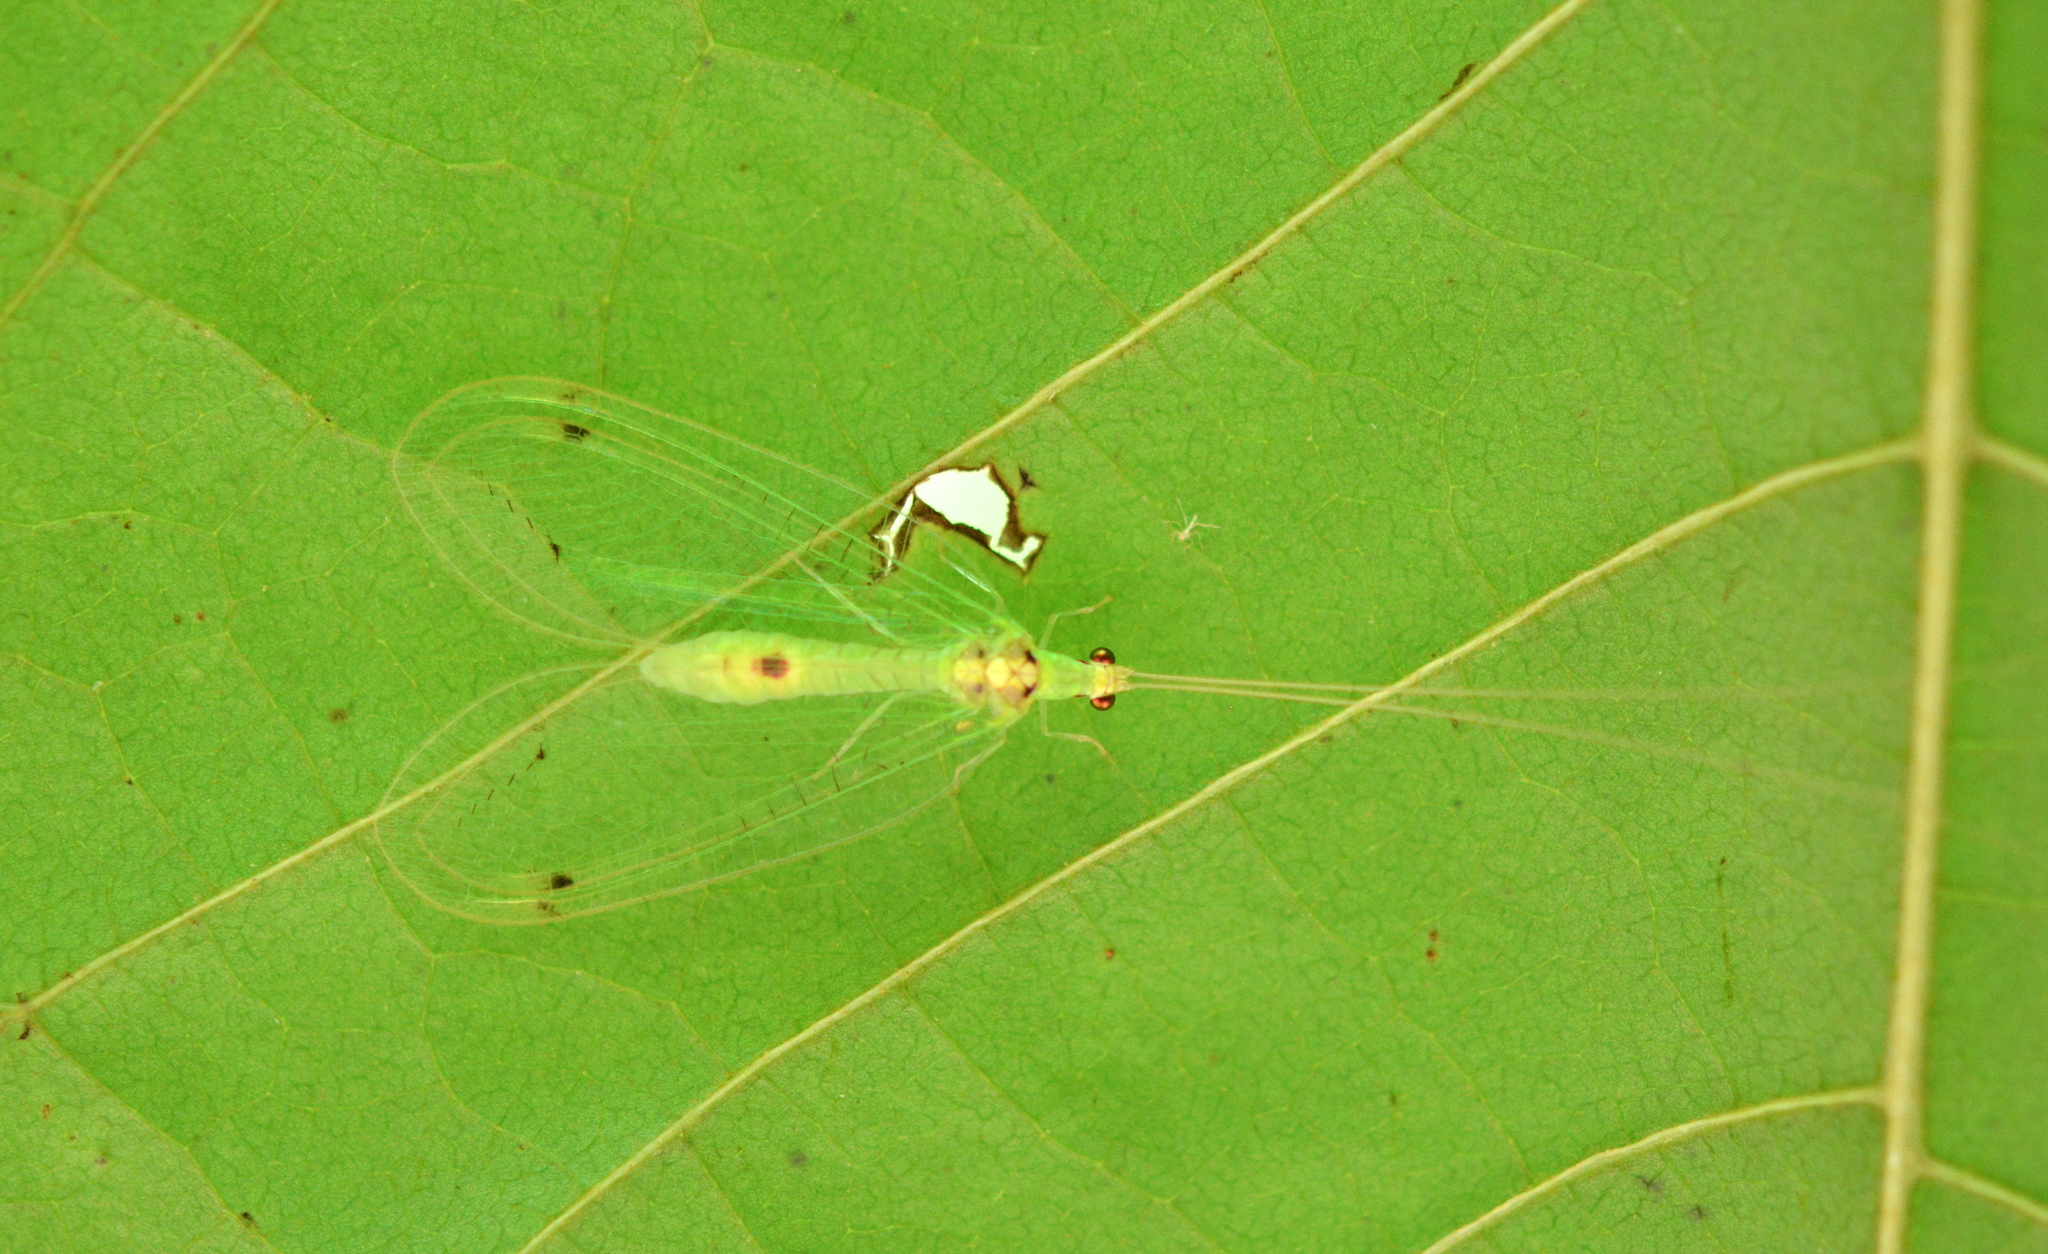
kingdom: Animalia
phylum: Arthropoda
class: Insecta
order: Neuroptera
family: Chrysopidae
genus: Leucochrysa
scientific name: Leucochrysa insularis
